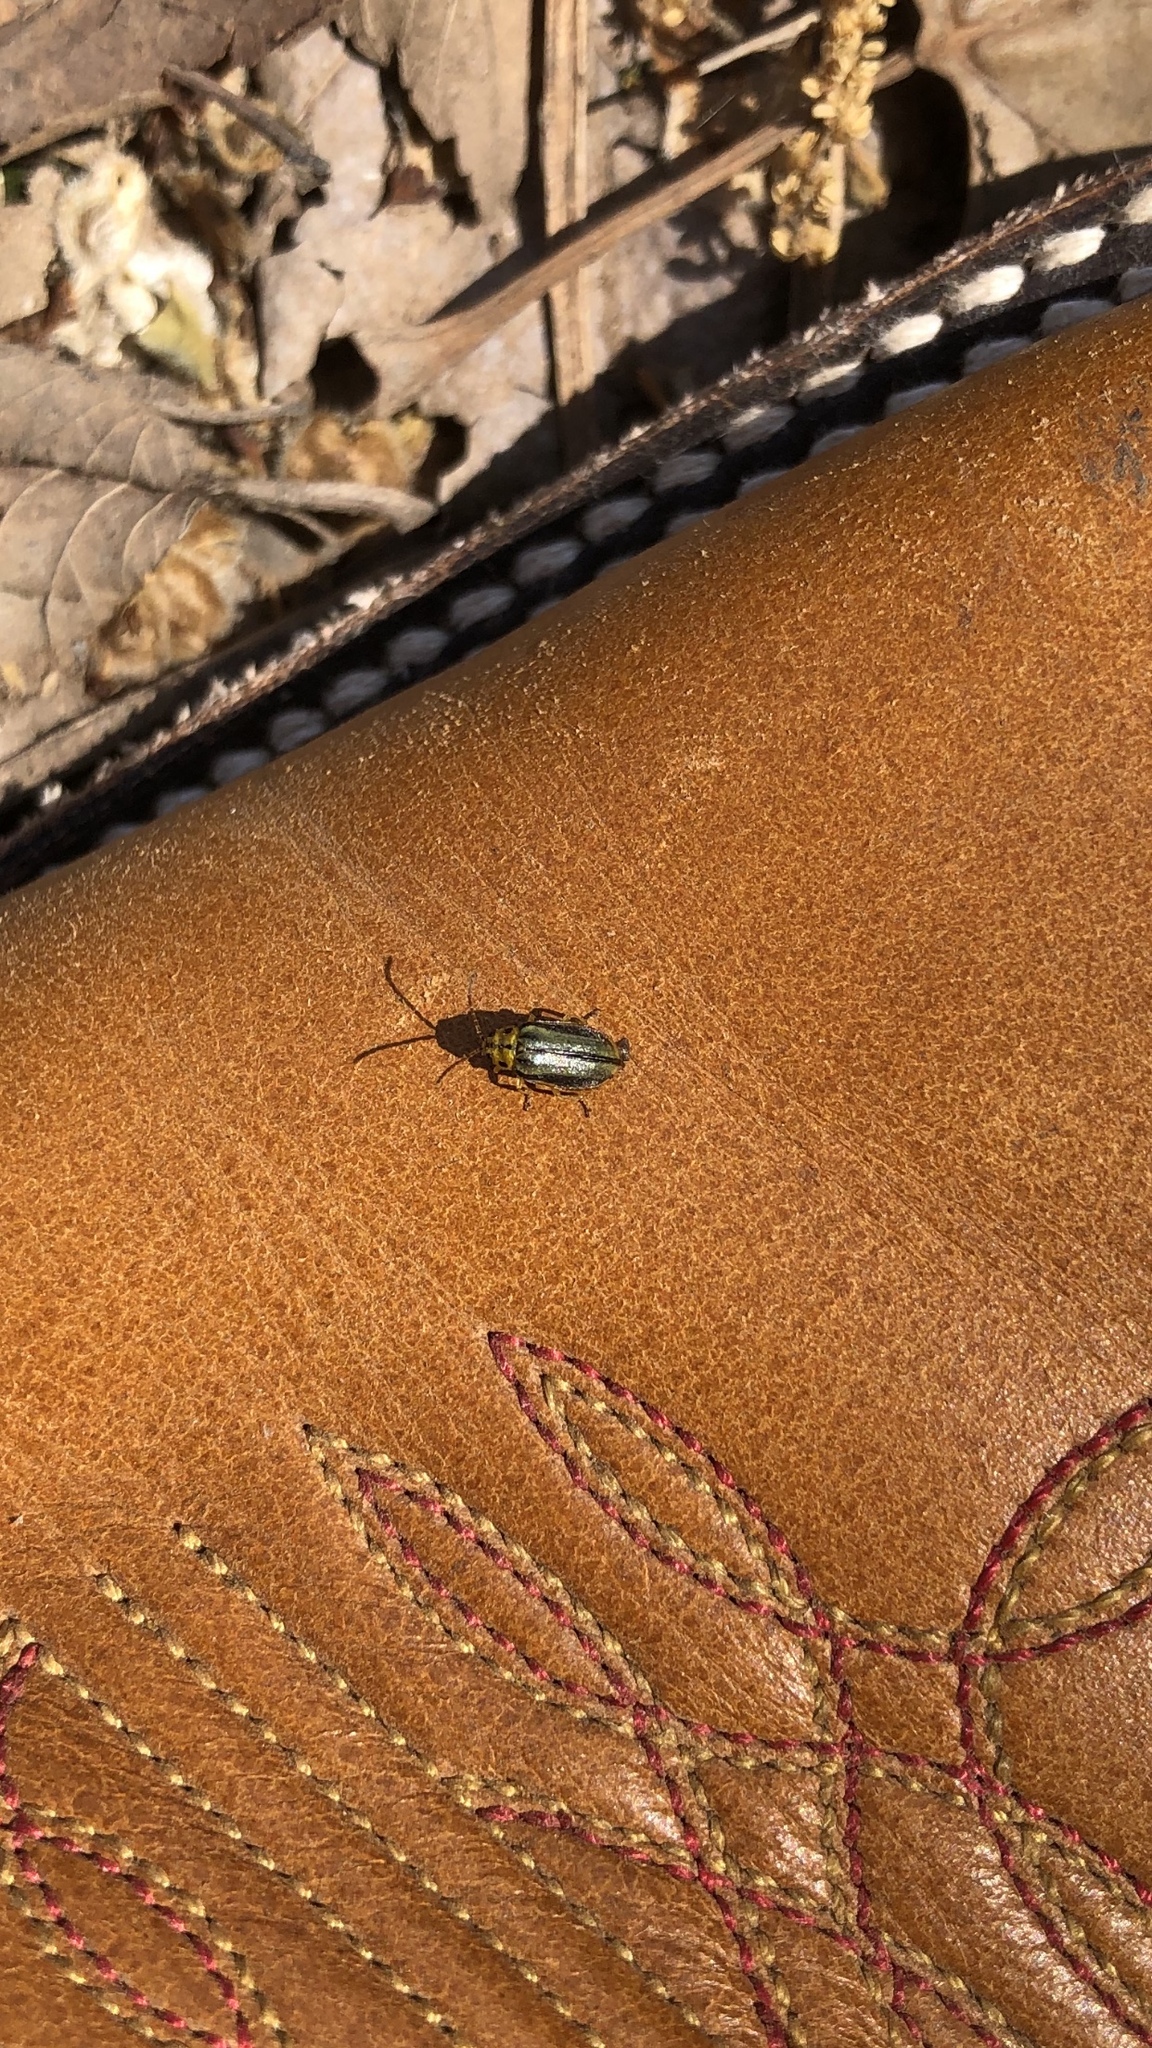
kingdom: Animalia
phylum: Arthropoda
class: Insecta
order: Coleoptera
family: Chrysomelidae
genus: Xanthogaleruca
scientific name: Xanthogaleruca luteola
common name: Elm leaf beetle
